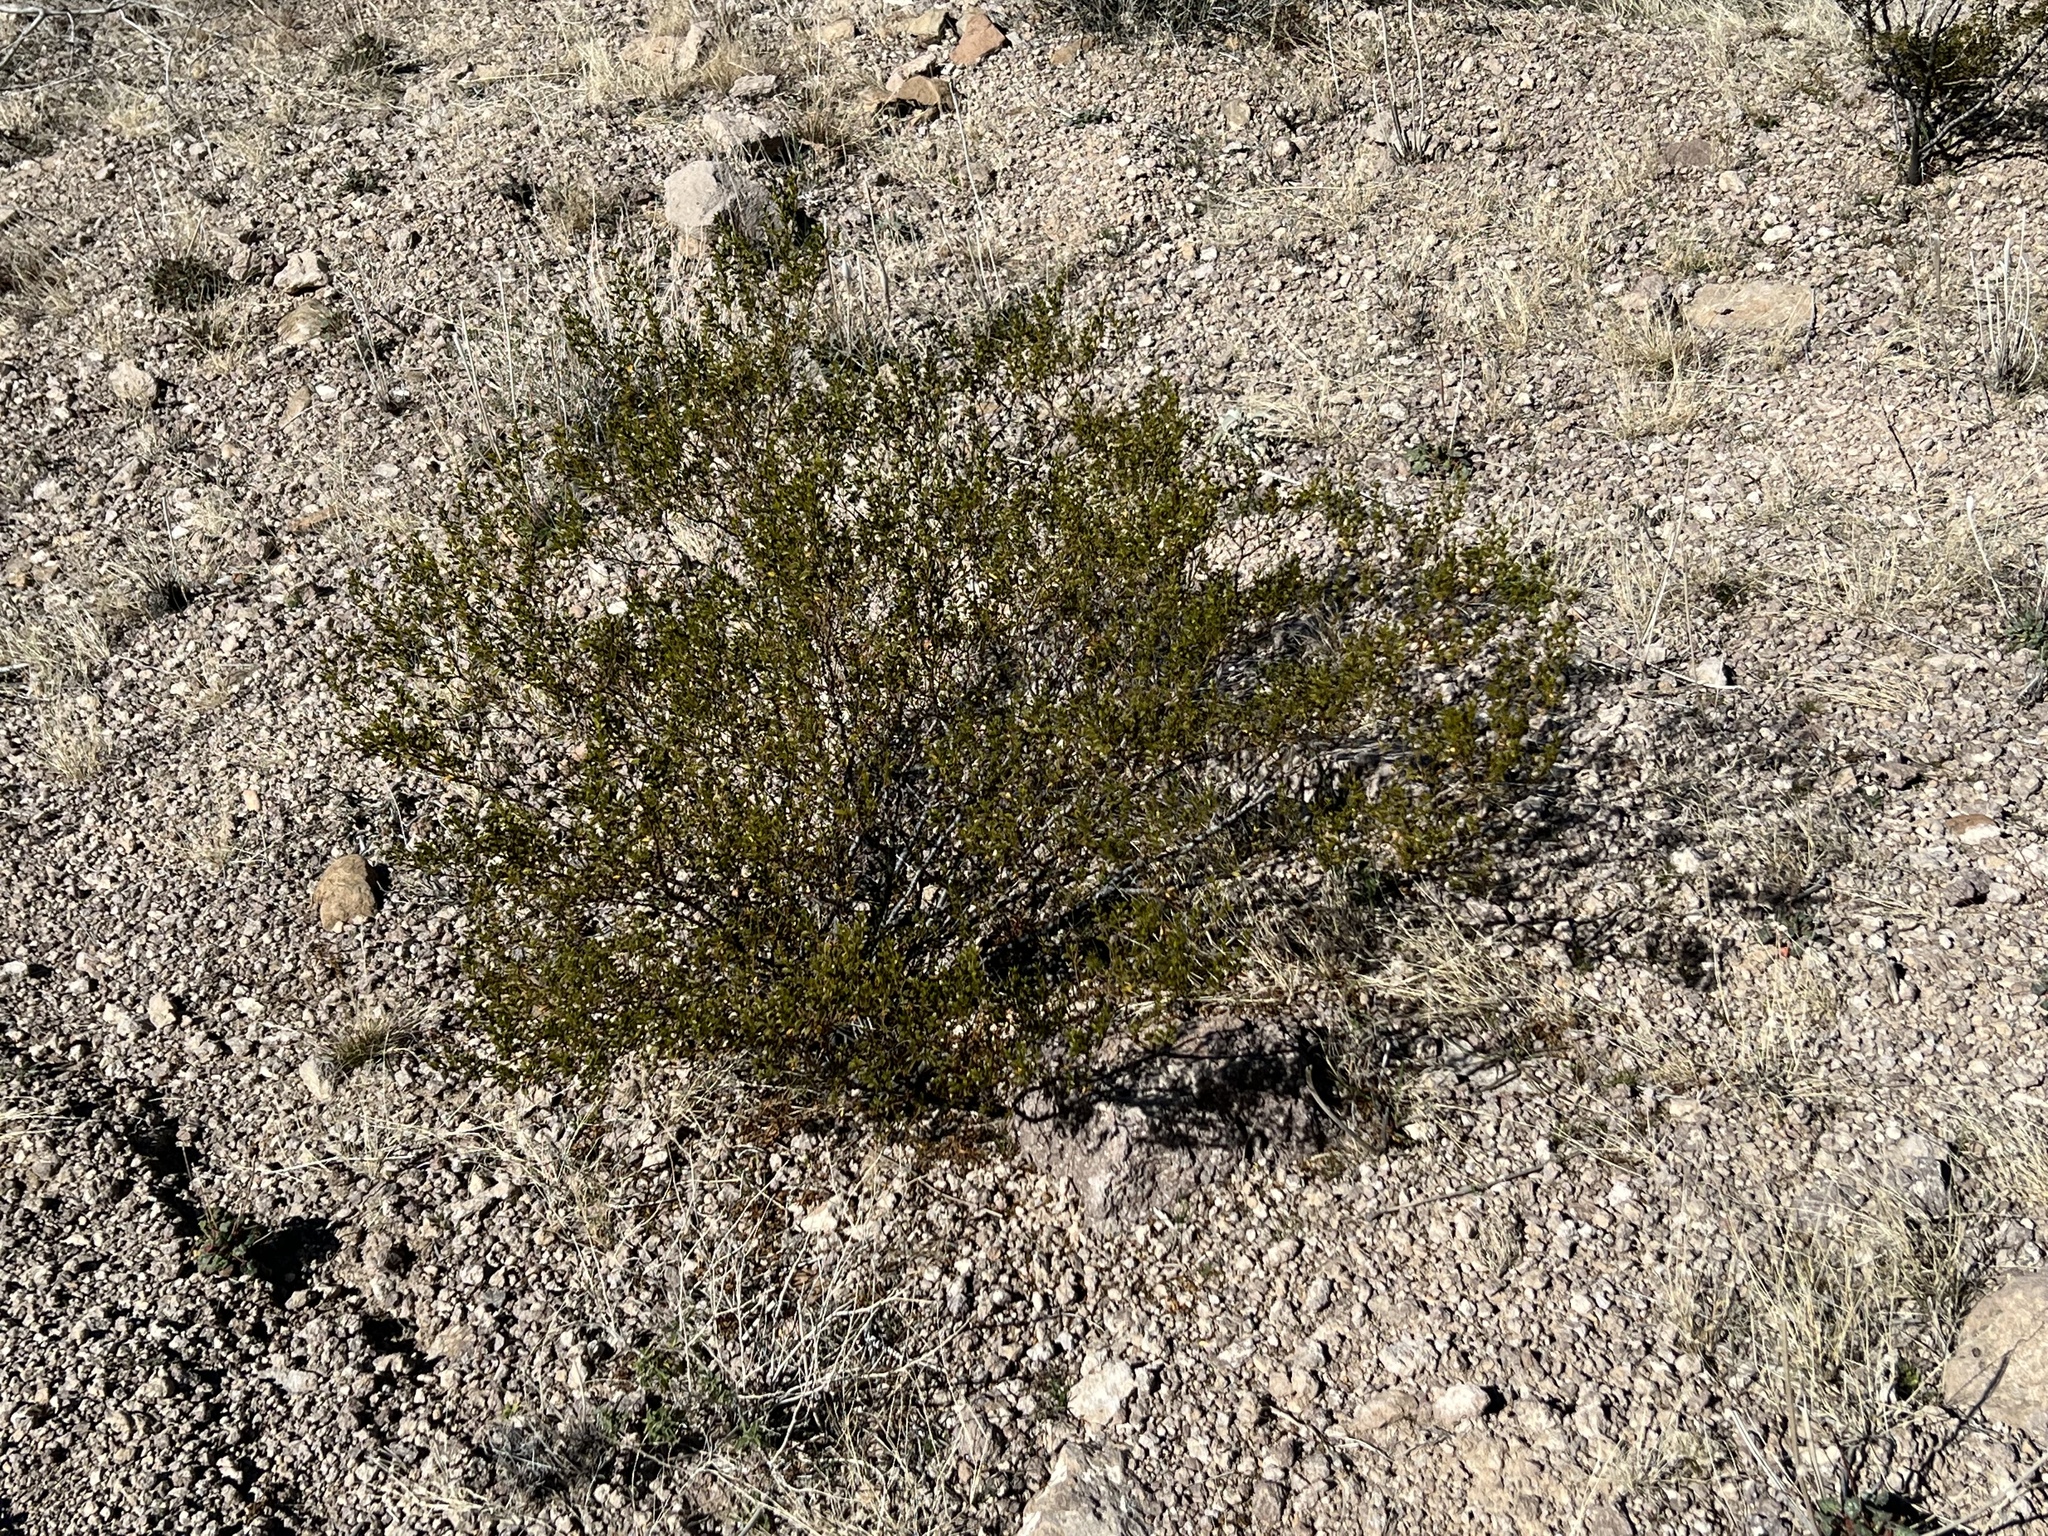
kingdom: Plantae
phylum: Tracheophyta
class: Magnoliopsida
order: Zygophyllales
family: Zygophyllaceae
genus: Larrea
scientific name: Larrea tridentata
